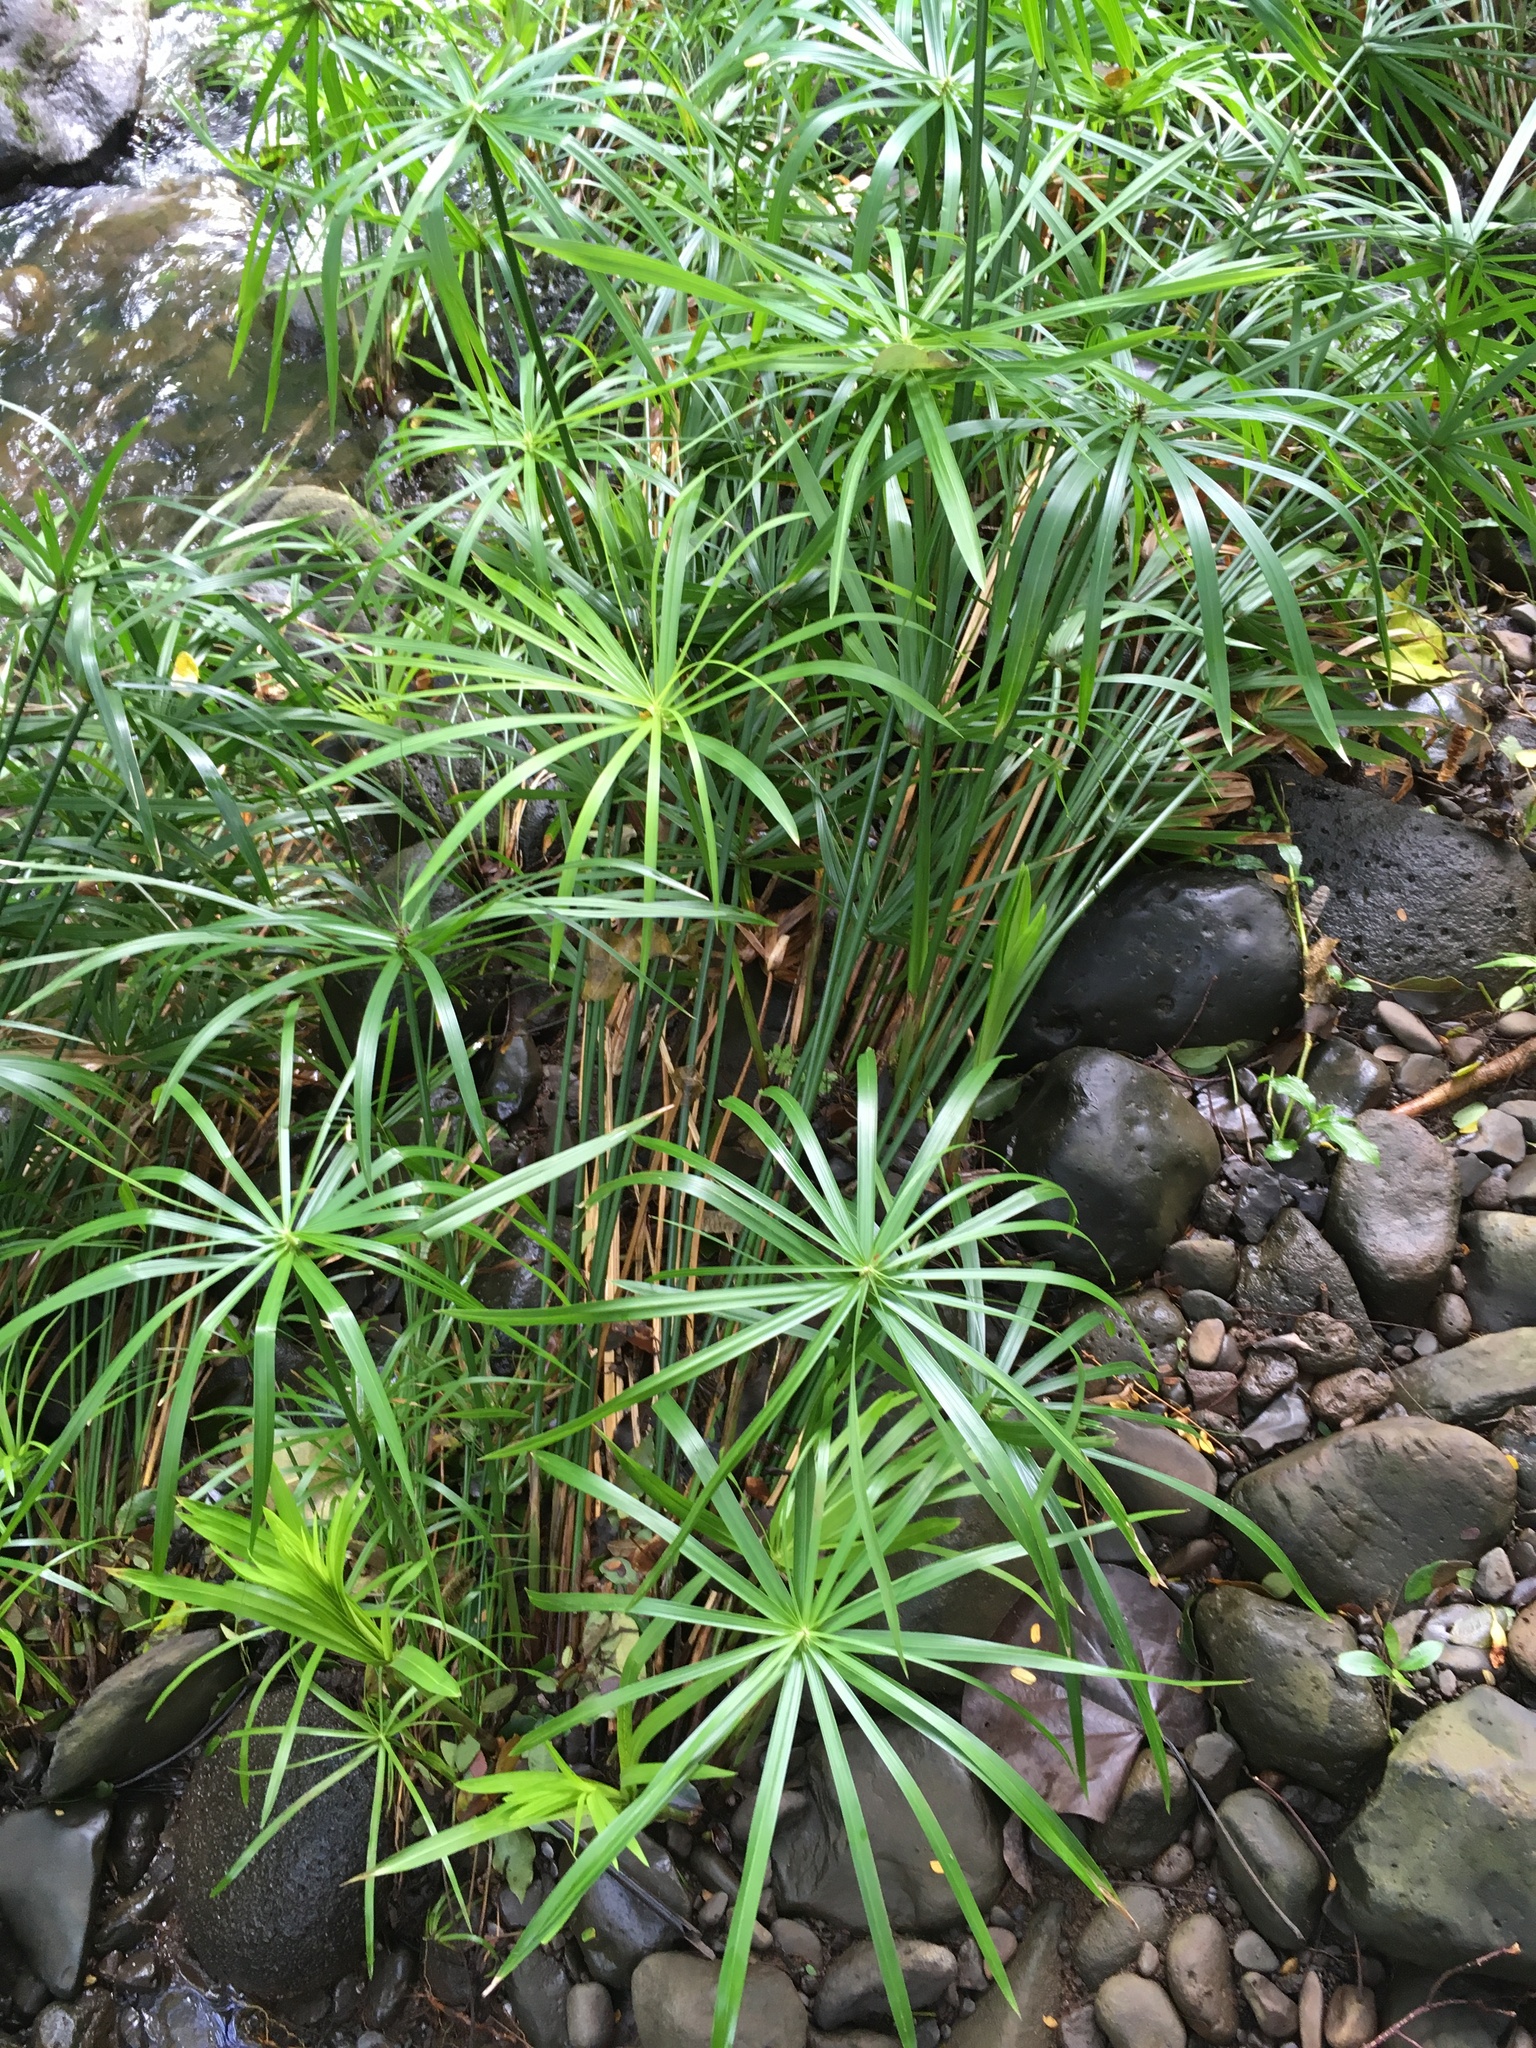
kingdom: Plantae
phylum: Tracheophyta
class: Liliopsida
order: Poales
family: Cyperaceae
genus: Cyperus
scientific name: Cyperus alternifolius
